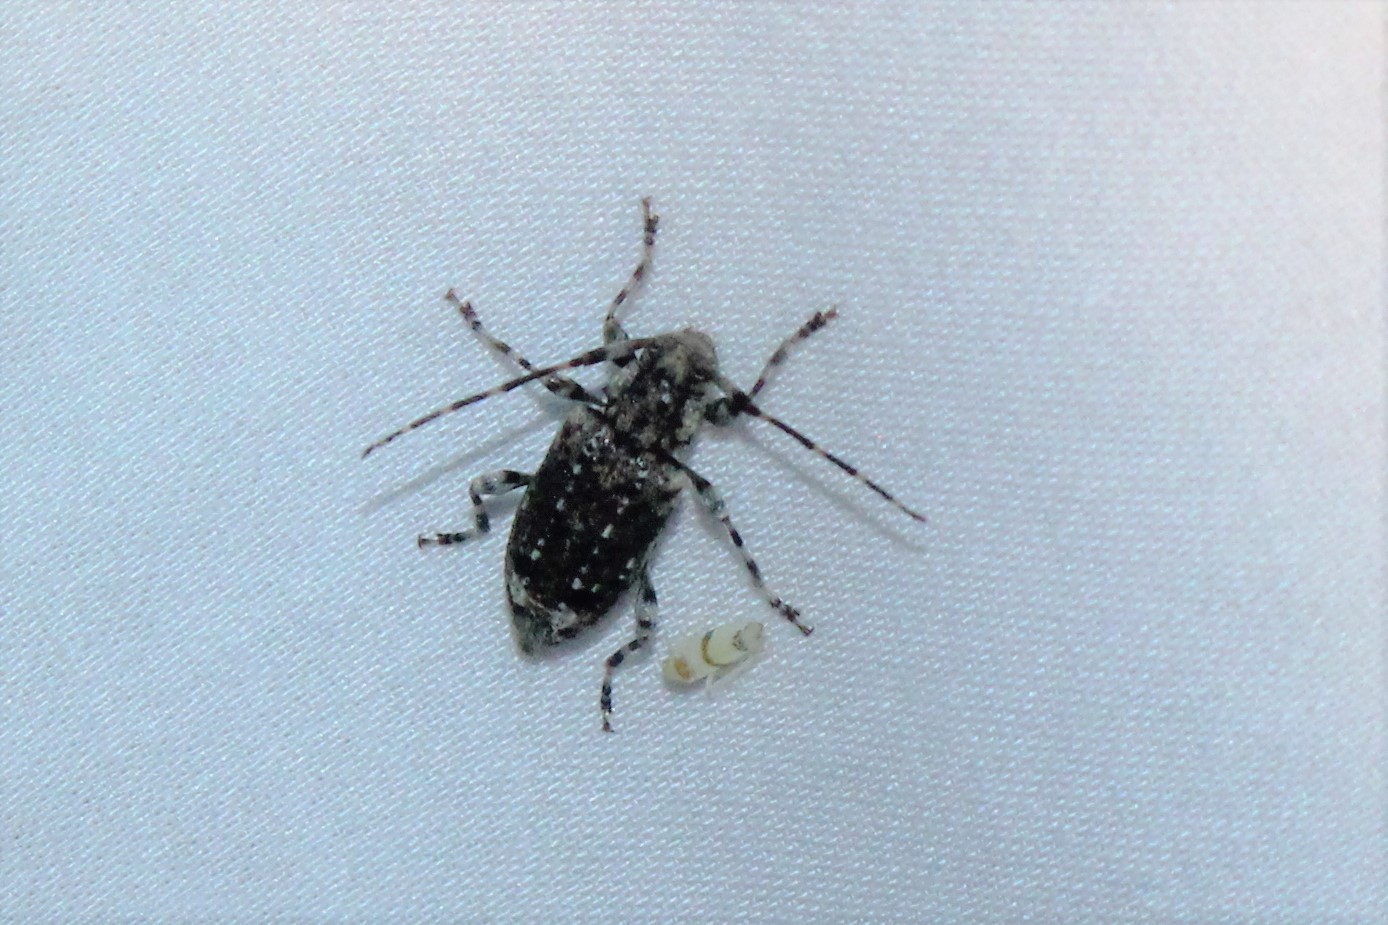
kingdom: Animalia
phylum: Arthropoda
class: Insecta
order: Coleoptera
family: Cerambycidae
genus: Astyleiopus
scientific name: Astyleiopus variegatus
